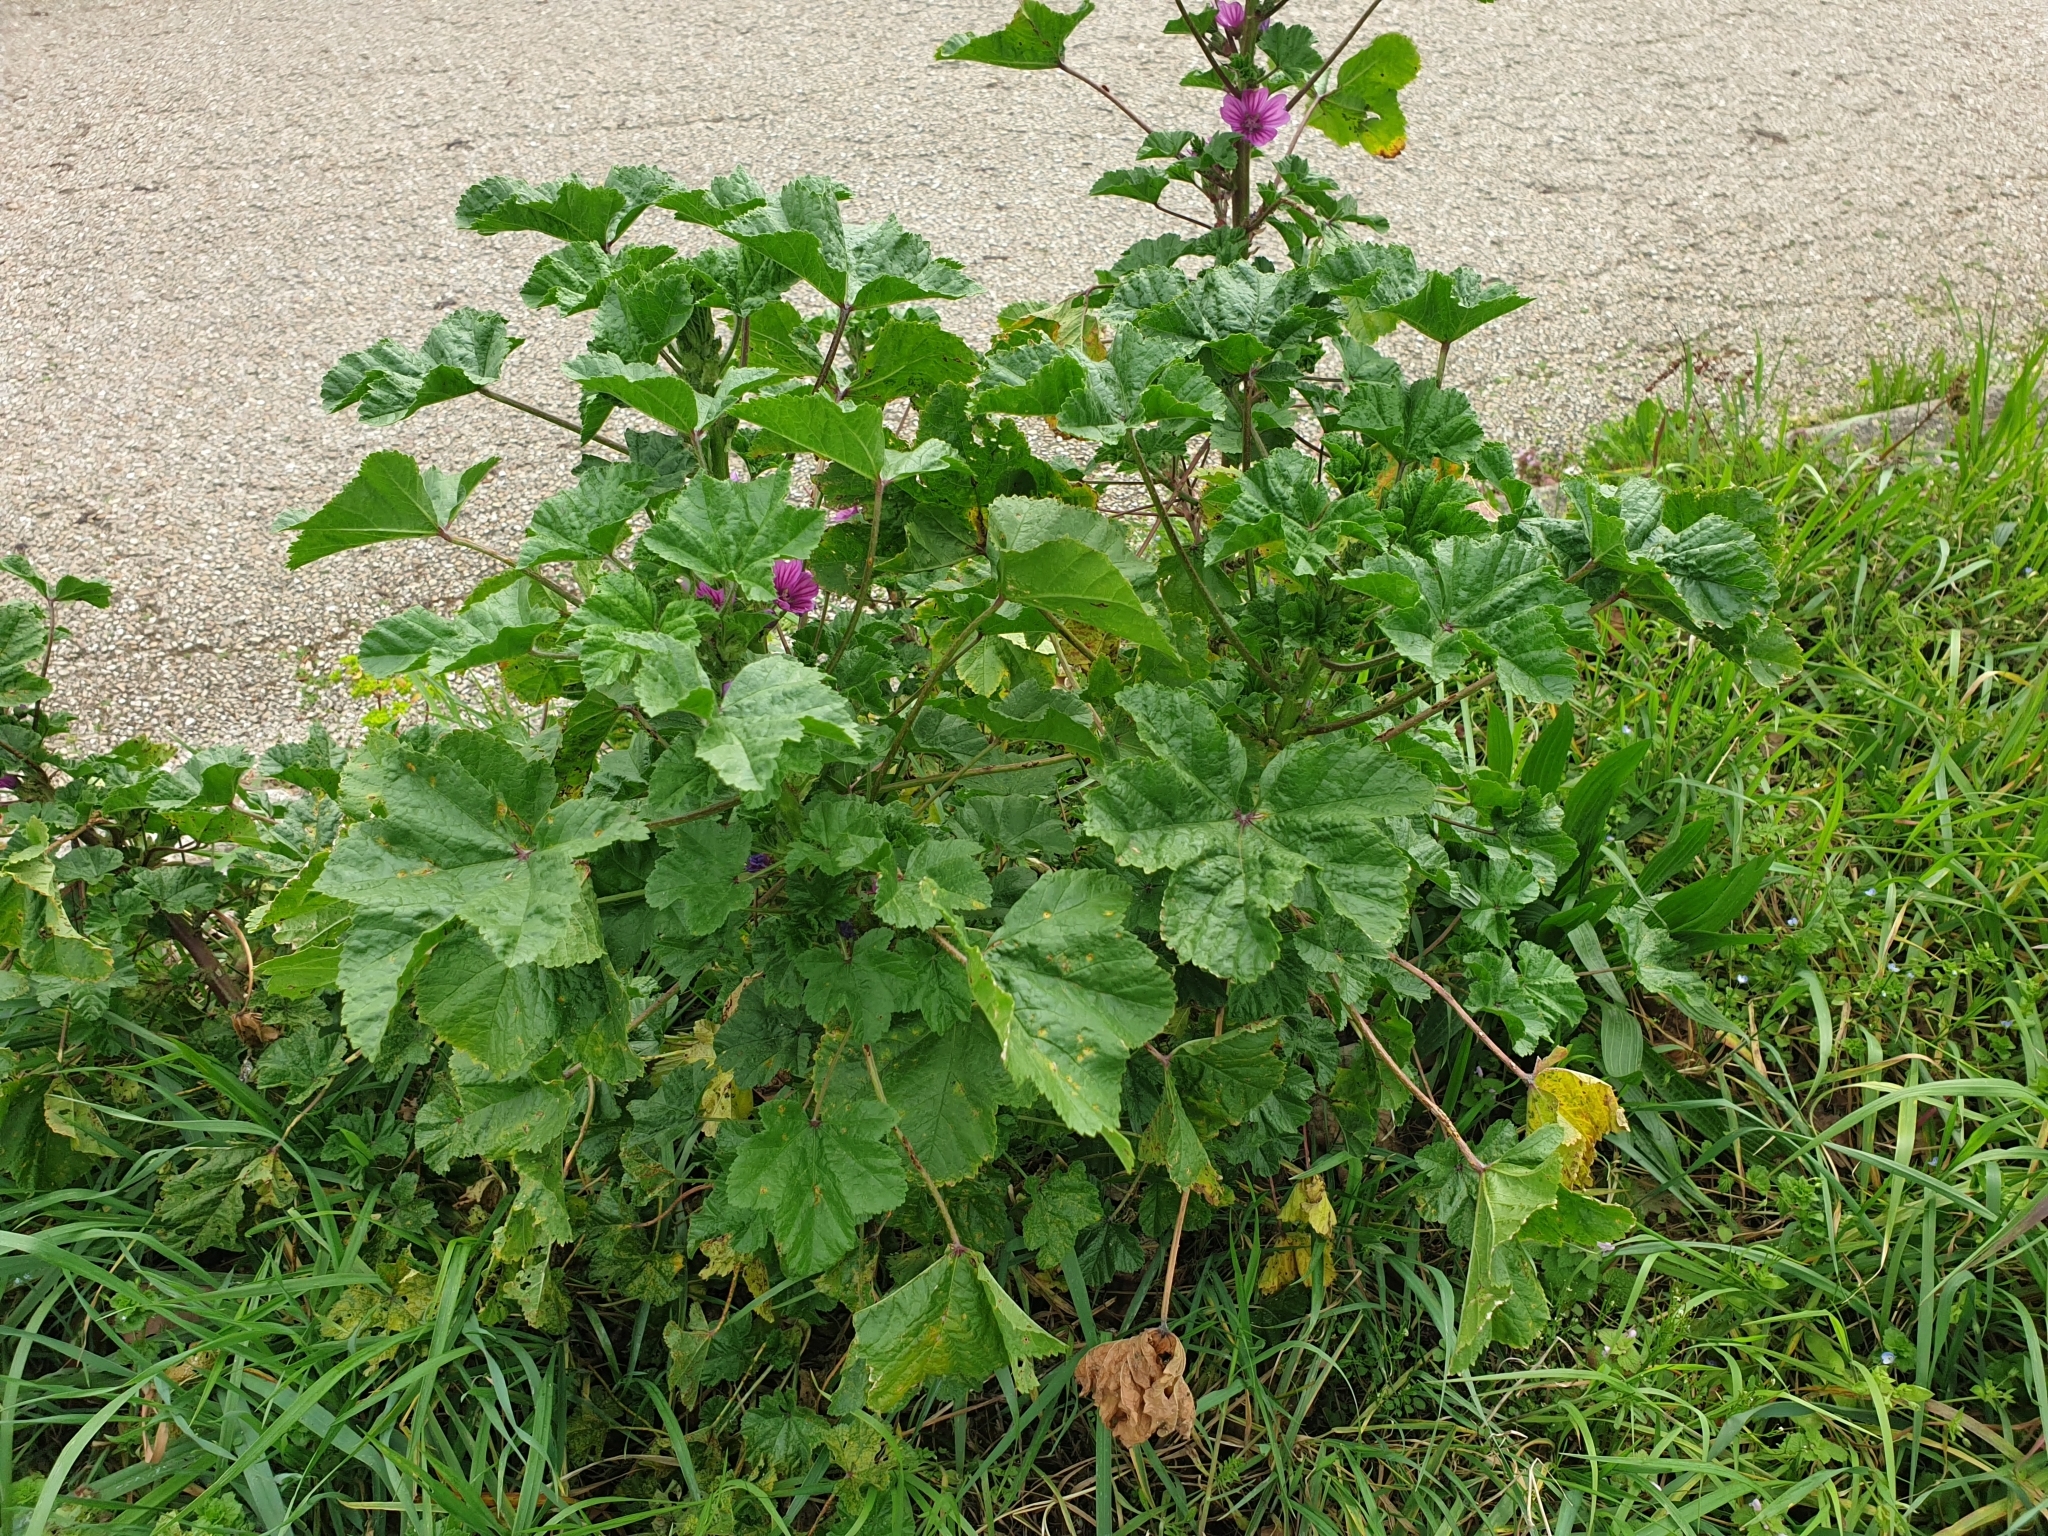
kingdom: Plantae
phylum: Tracheophyta
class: Magnoliopsida
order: Malvales
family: Malvaceae
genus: Malva
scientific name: Malva sylvestris
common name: Common mallow
